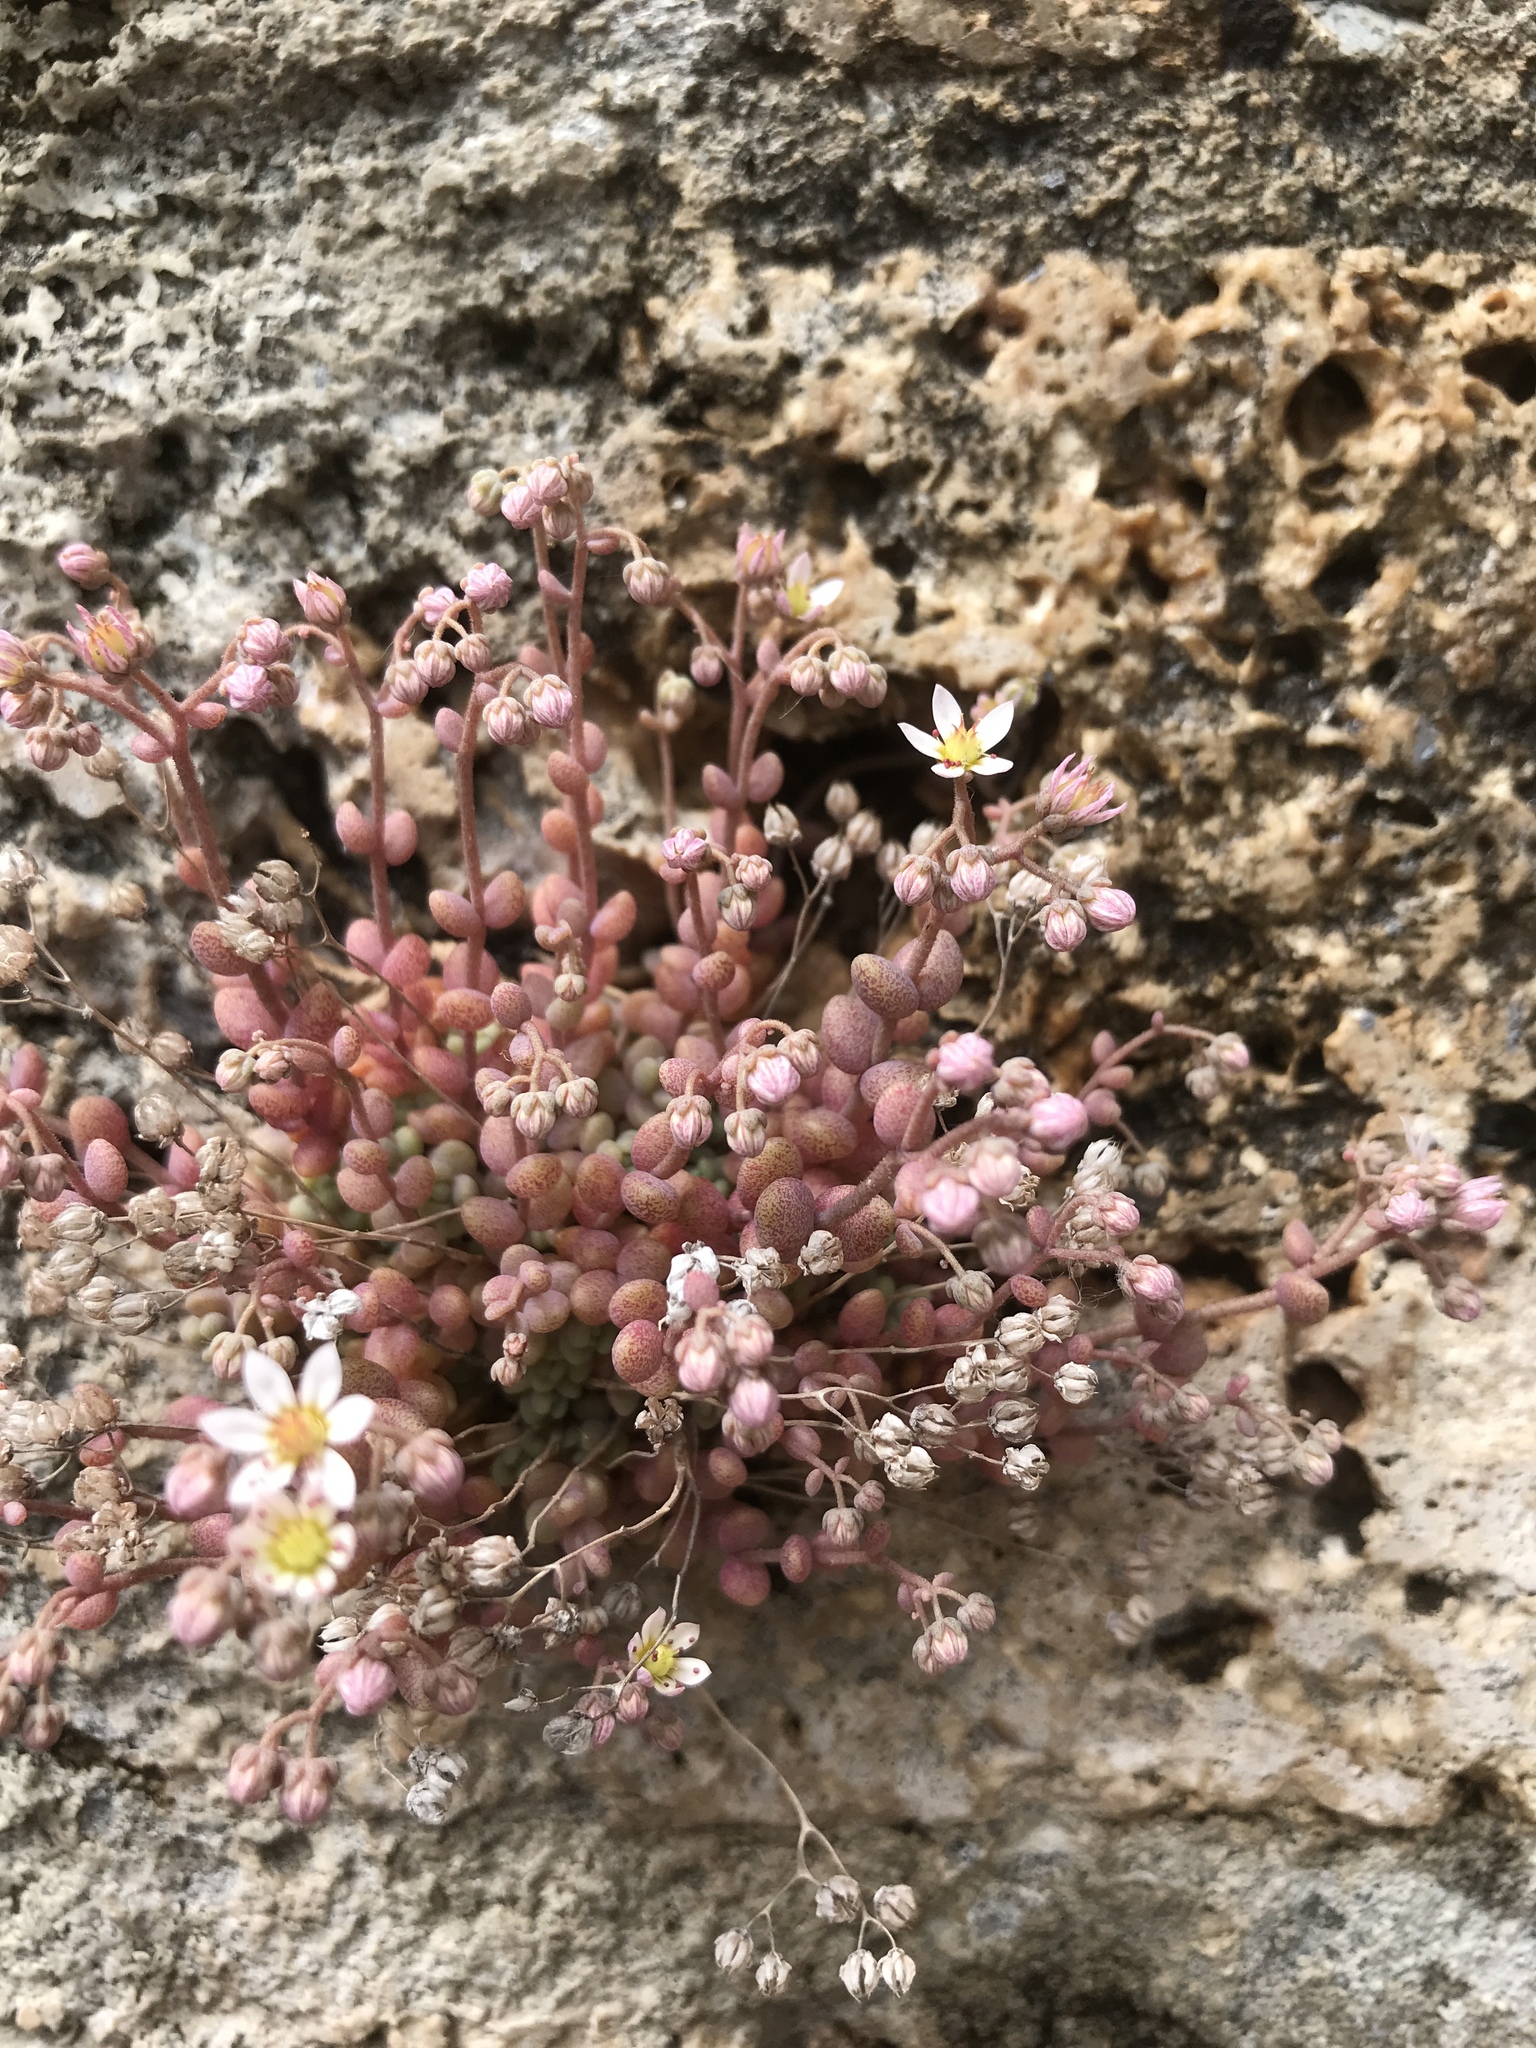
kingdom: Plantae
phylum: Tracheophyta
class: Magnoliopsida
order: Saxifragales
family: Crassulaceae
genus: Sedum
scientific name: Sedum dasyphyllum
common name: Thick-leaf stonecrop
